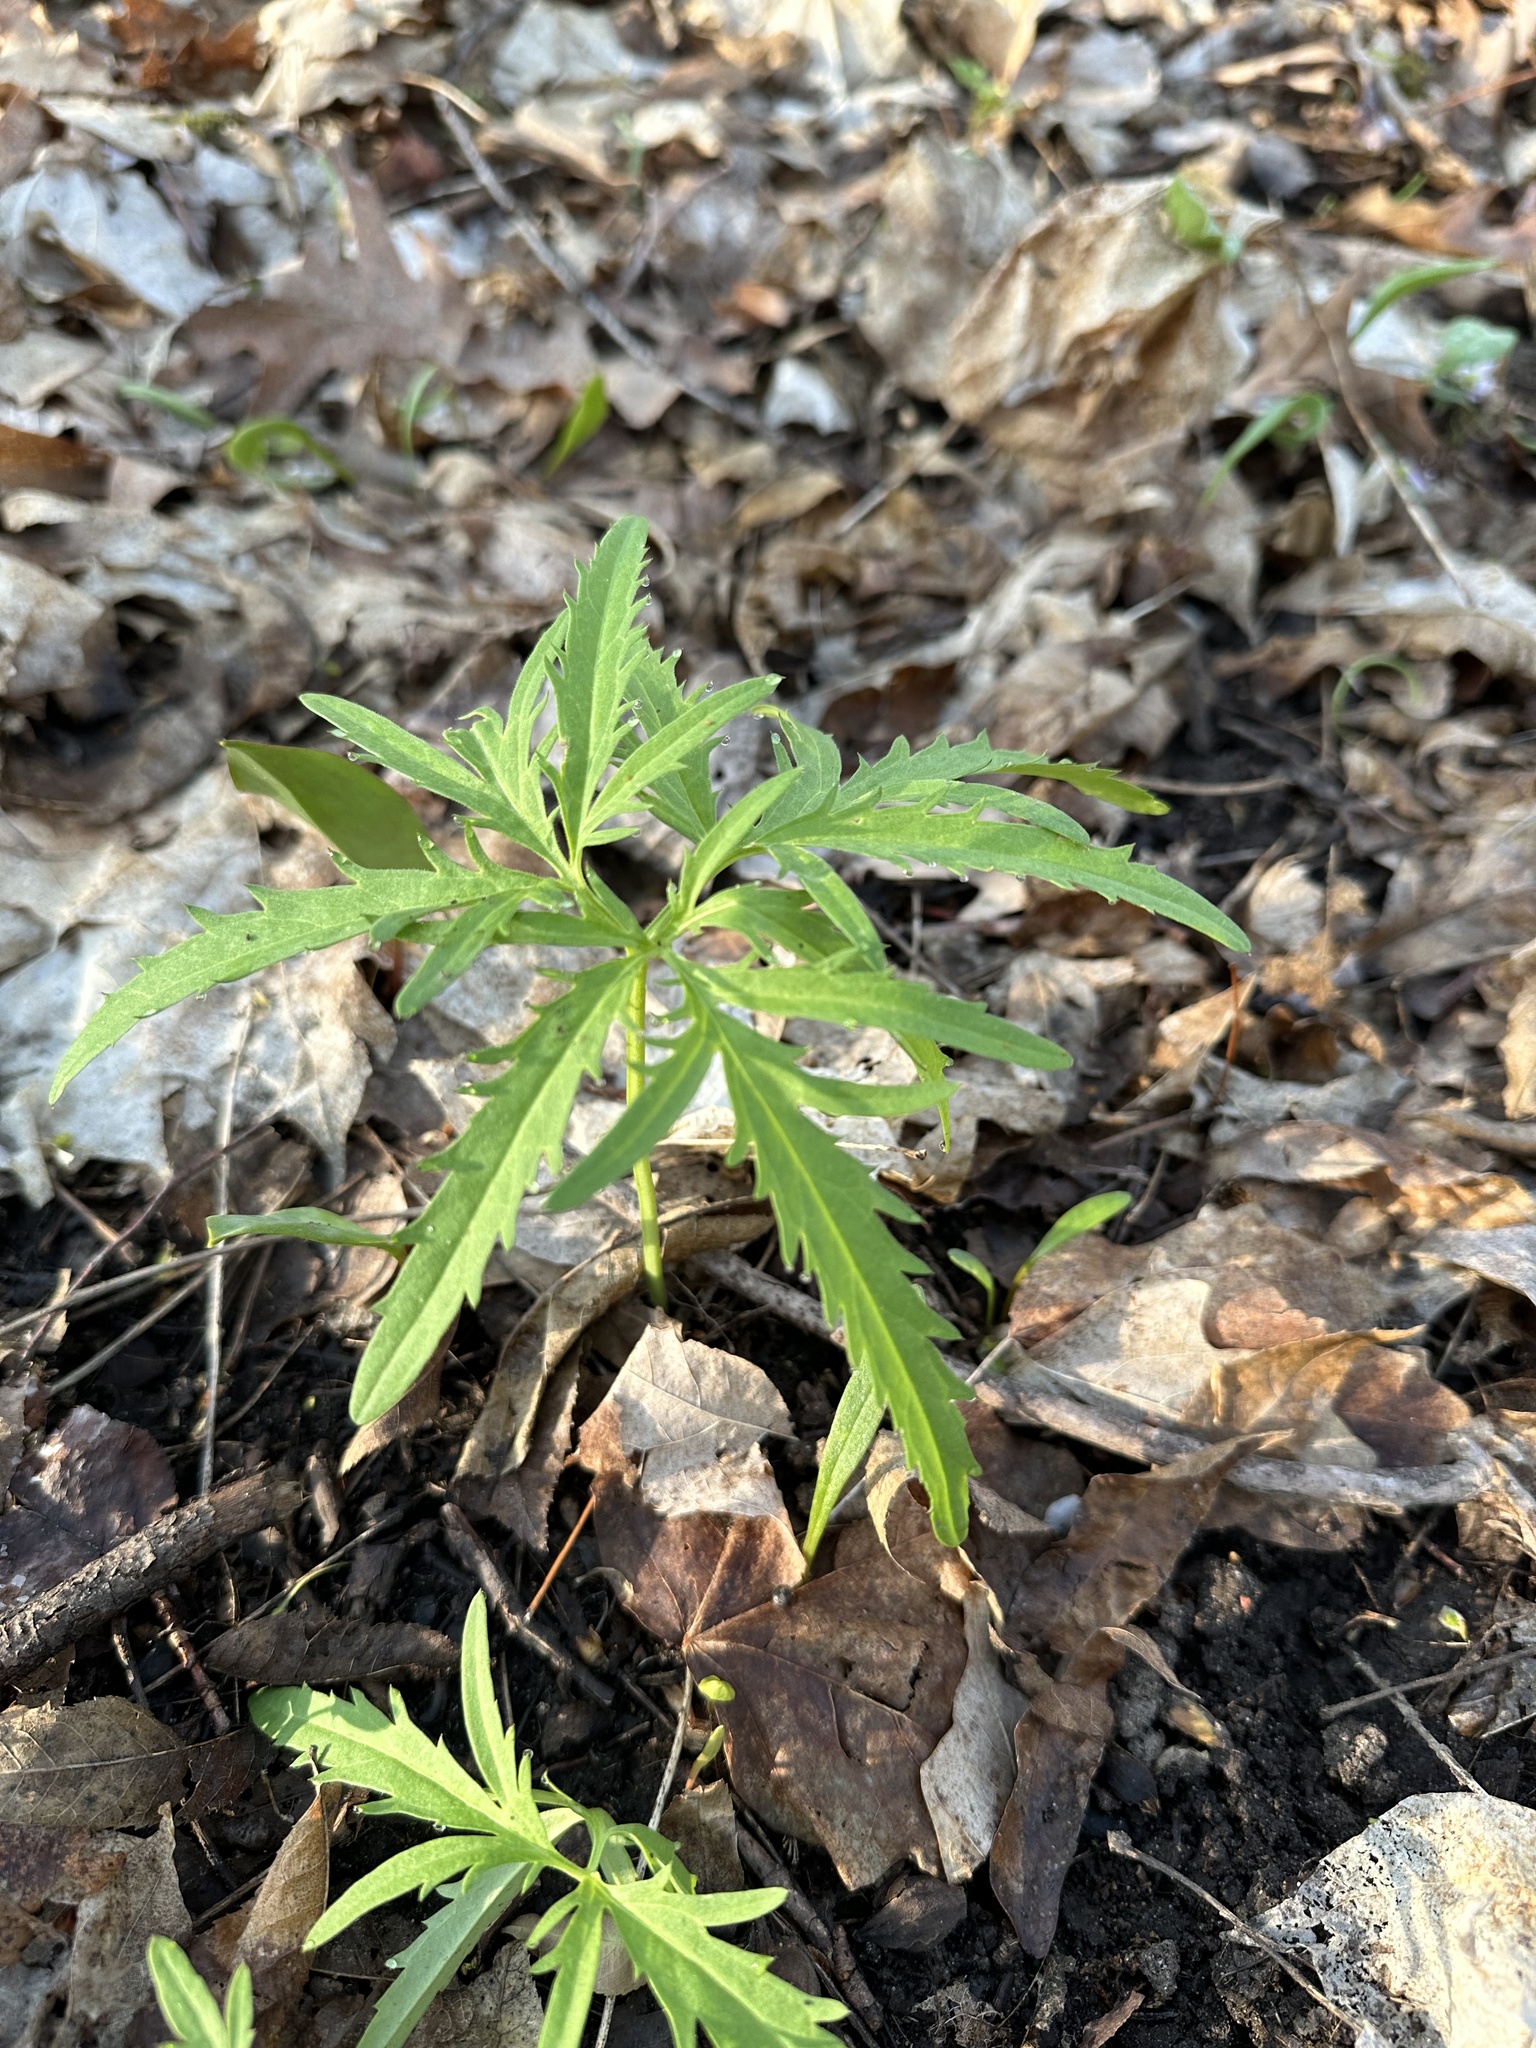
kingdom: Plantae
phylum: Tracheophyta
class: Magnoliopsida
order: Brassicales
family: Brassicaceae
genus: Cardamine
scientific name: Cardamine concatenata
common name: Cut-leaf toothcup
